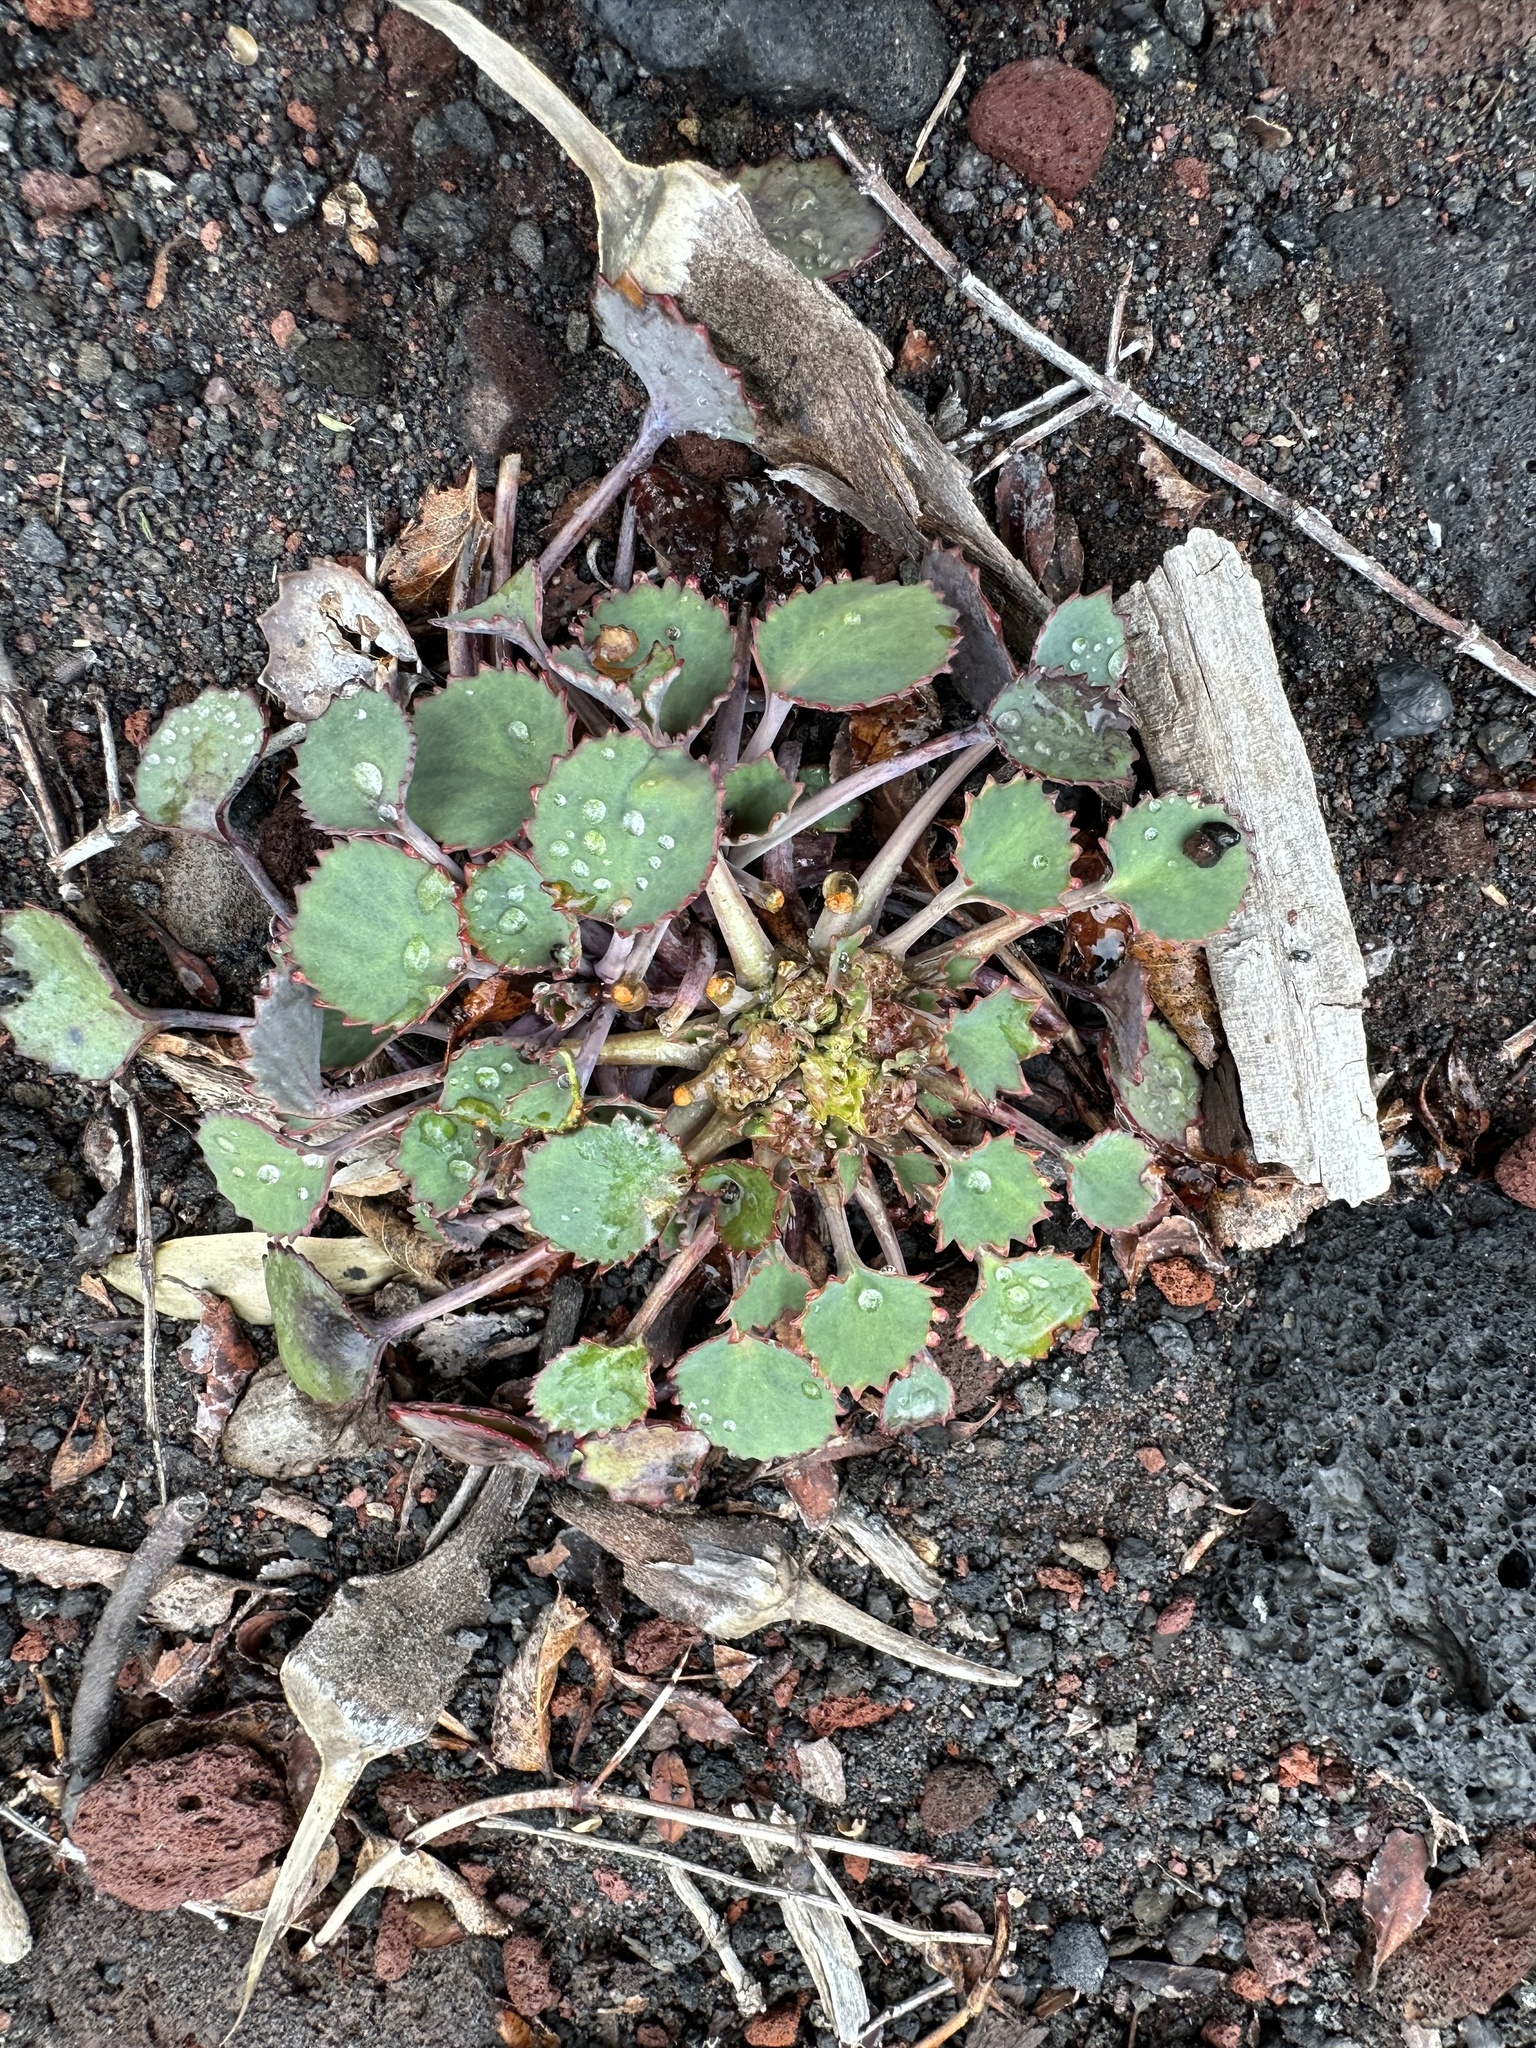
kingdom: Plantae
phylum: Tracheophyta
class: Magnoliopsida
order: Apiales
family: Apiaceae
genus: Pozoa
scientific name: Pozoa coriacea
